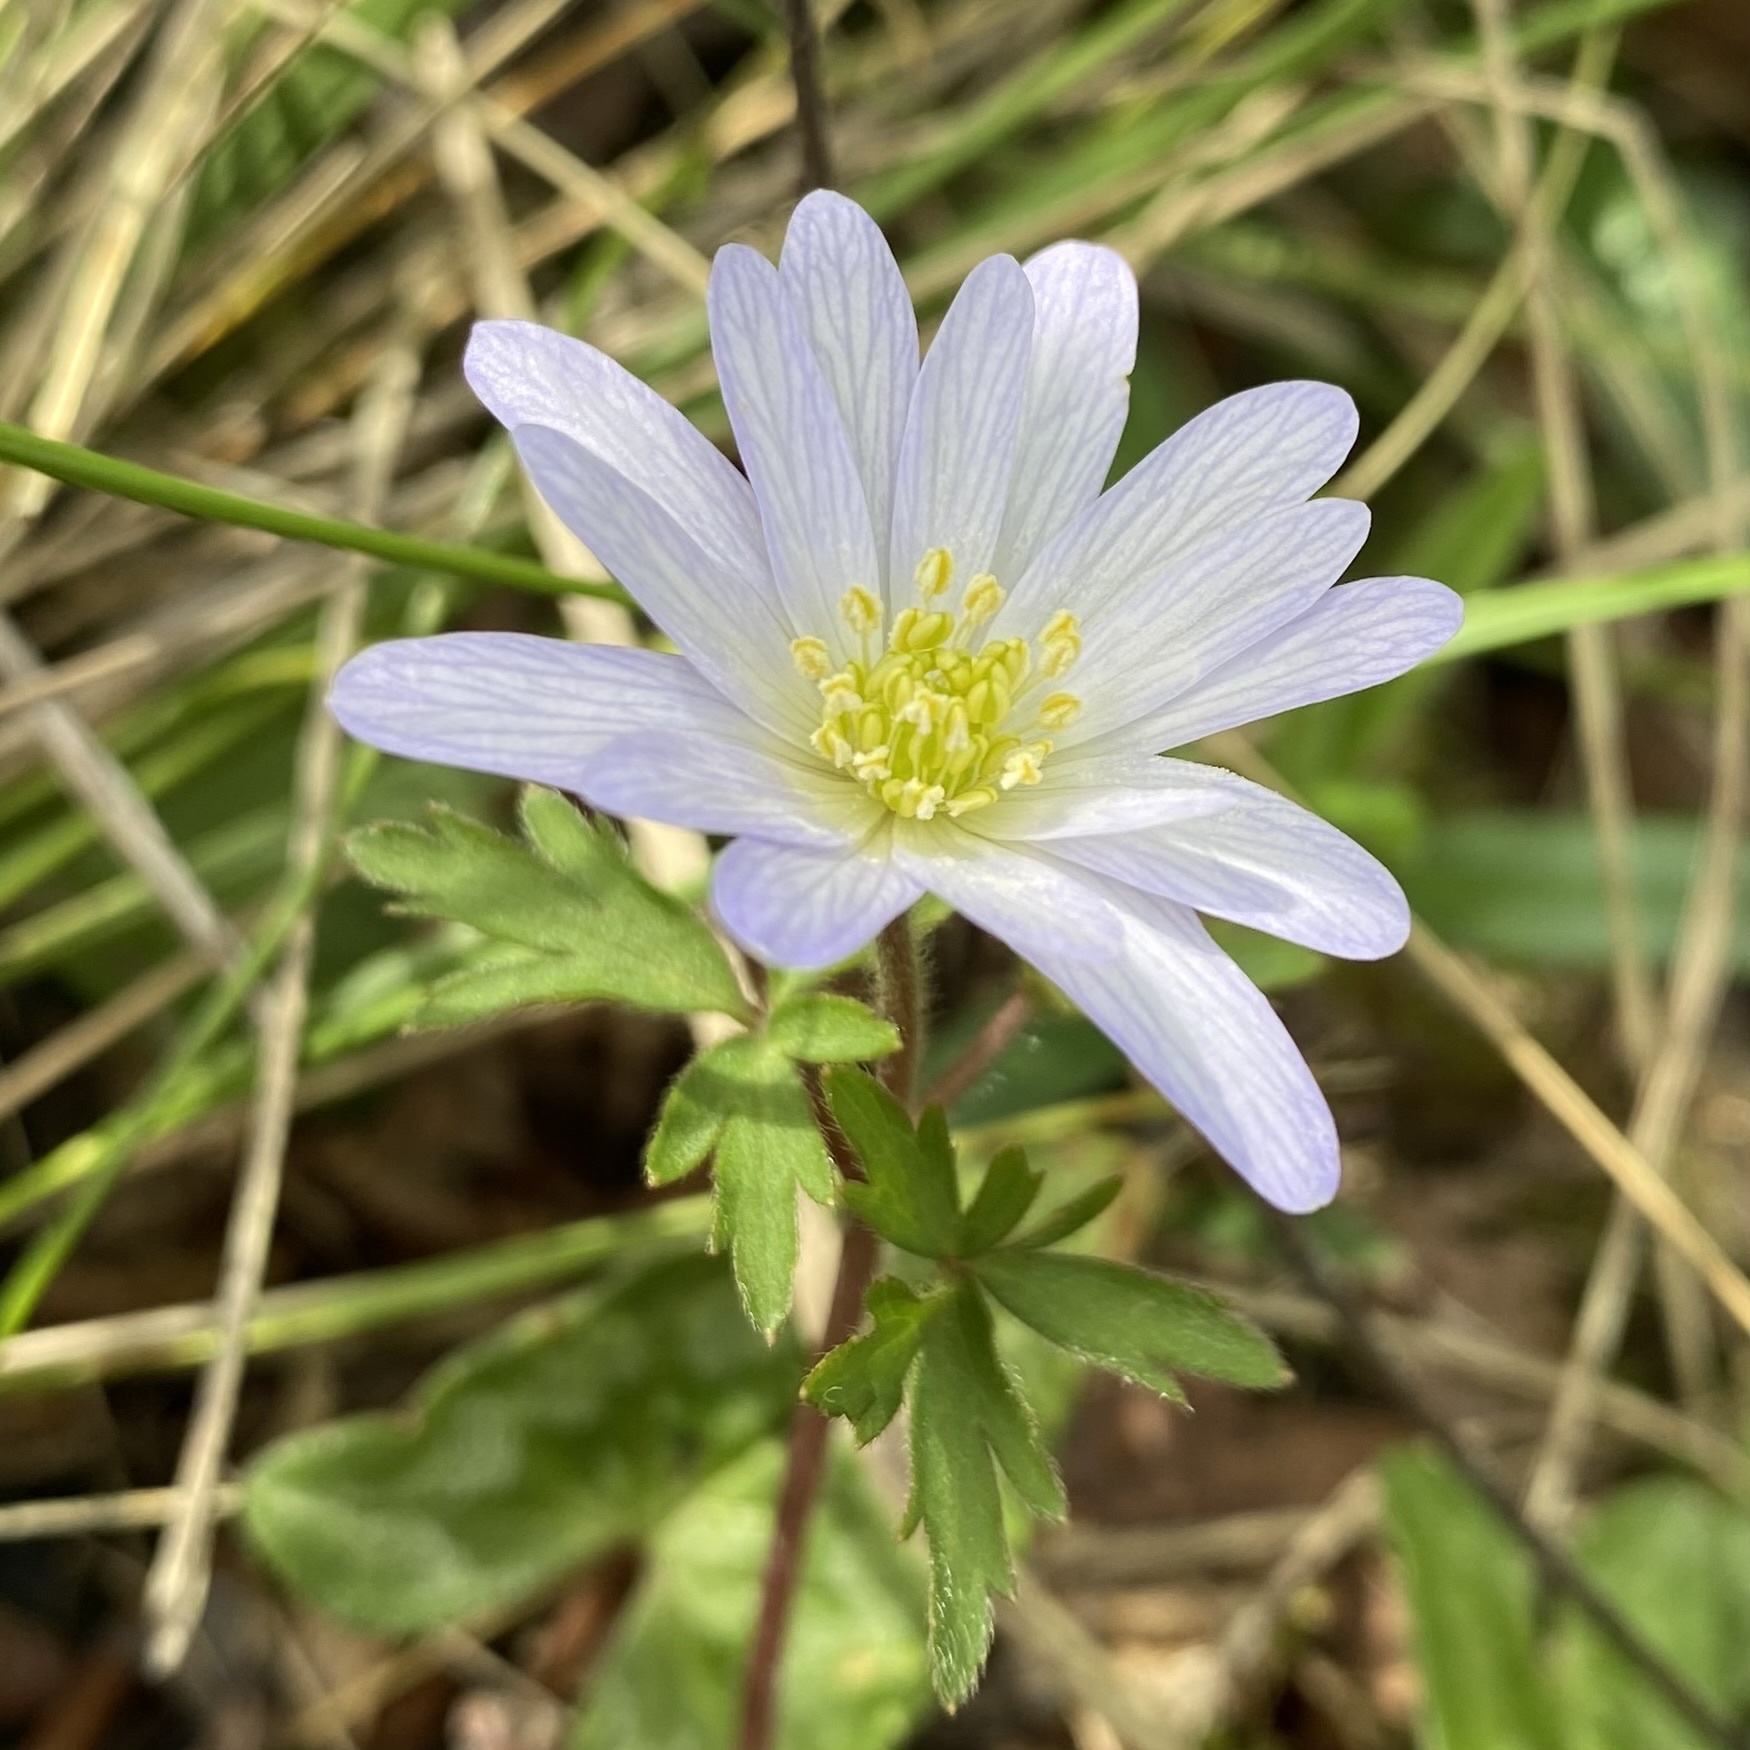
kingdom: Plantae
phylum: Tracheophyta
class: Magnoliopsida
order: Ranunculales
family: Ranunculaceae
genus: Anemone
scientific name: Anemone blanda
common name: Balkan anemone
